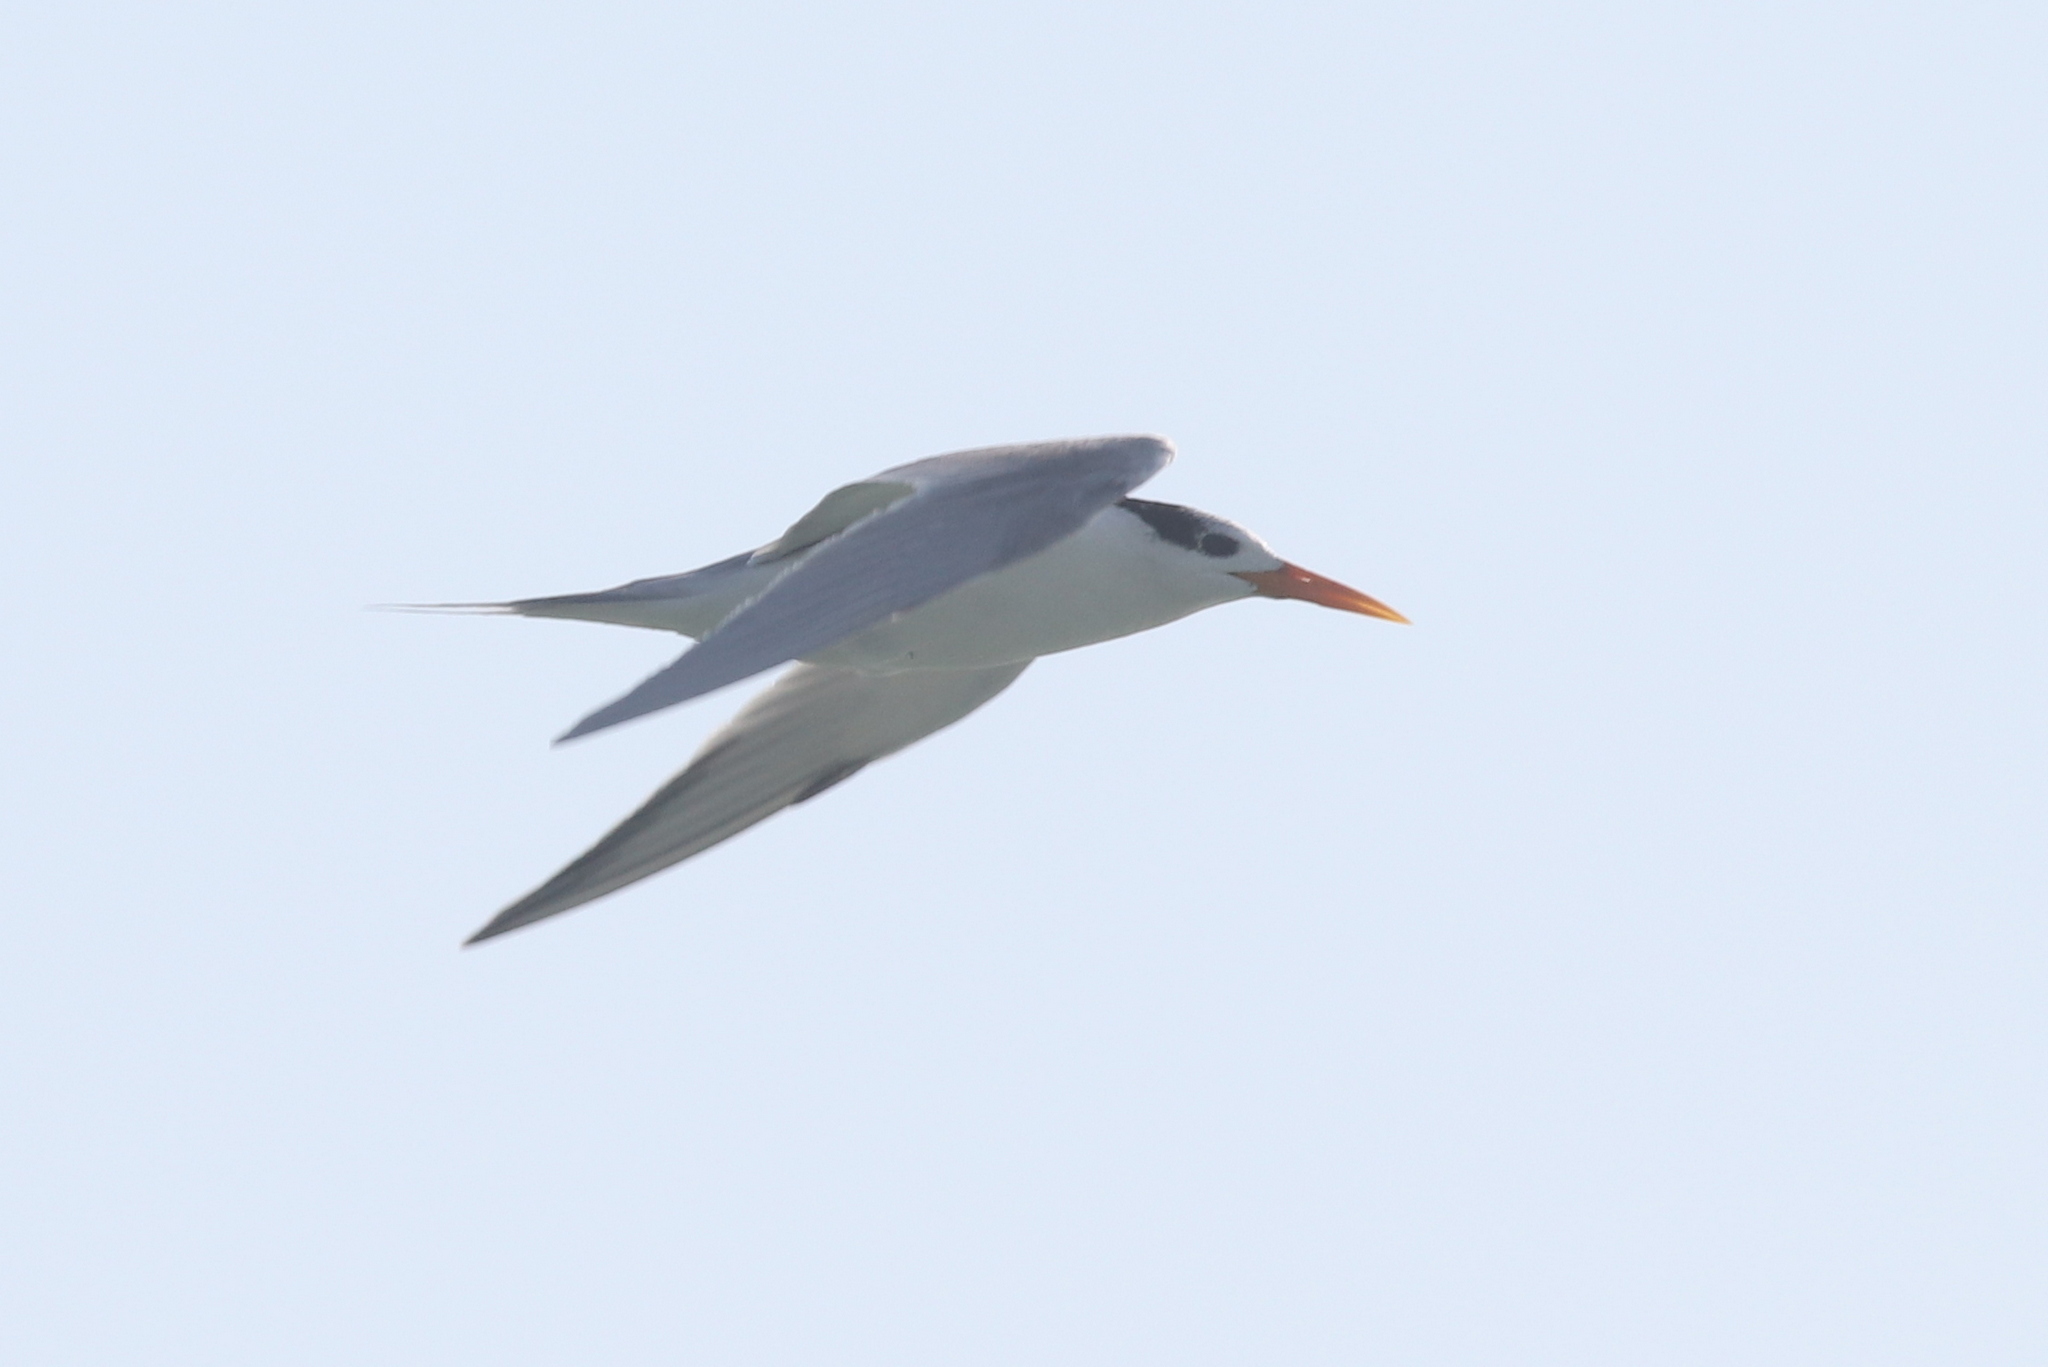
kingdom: Animalia
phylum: Chordata
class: Aves
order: Charadriiformes
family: Laridae
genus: Thalasseus
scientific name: Thalasseus bengalensis
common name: Lesser crested tern
